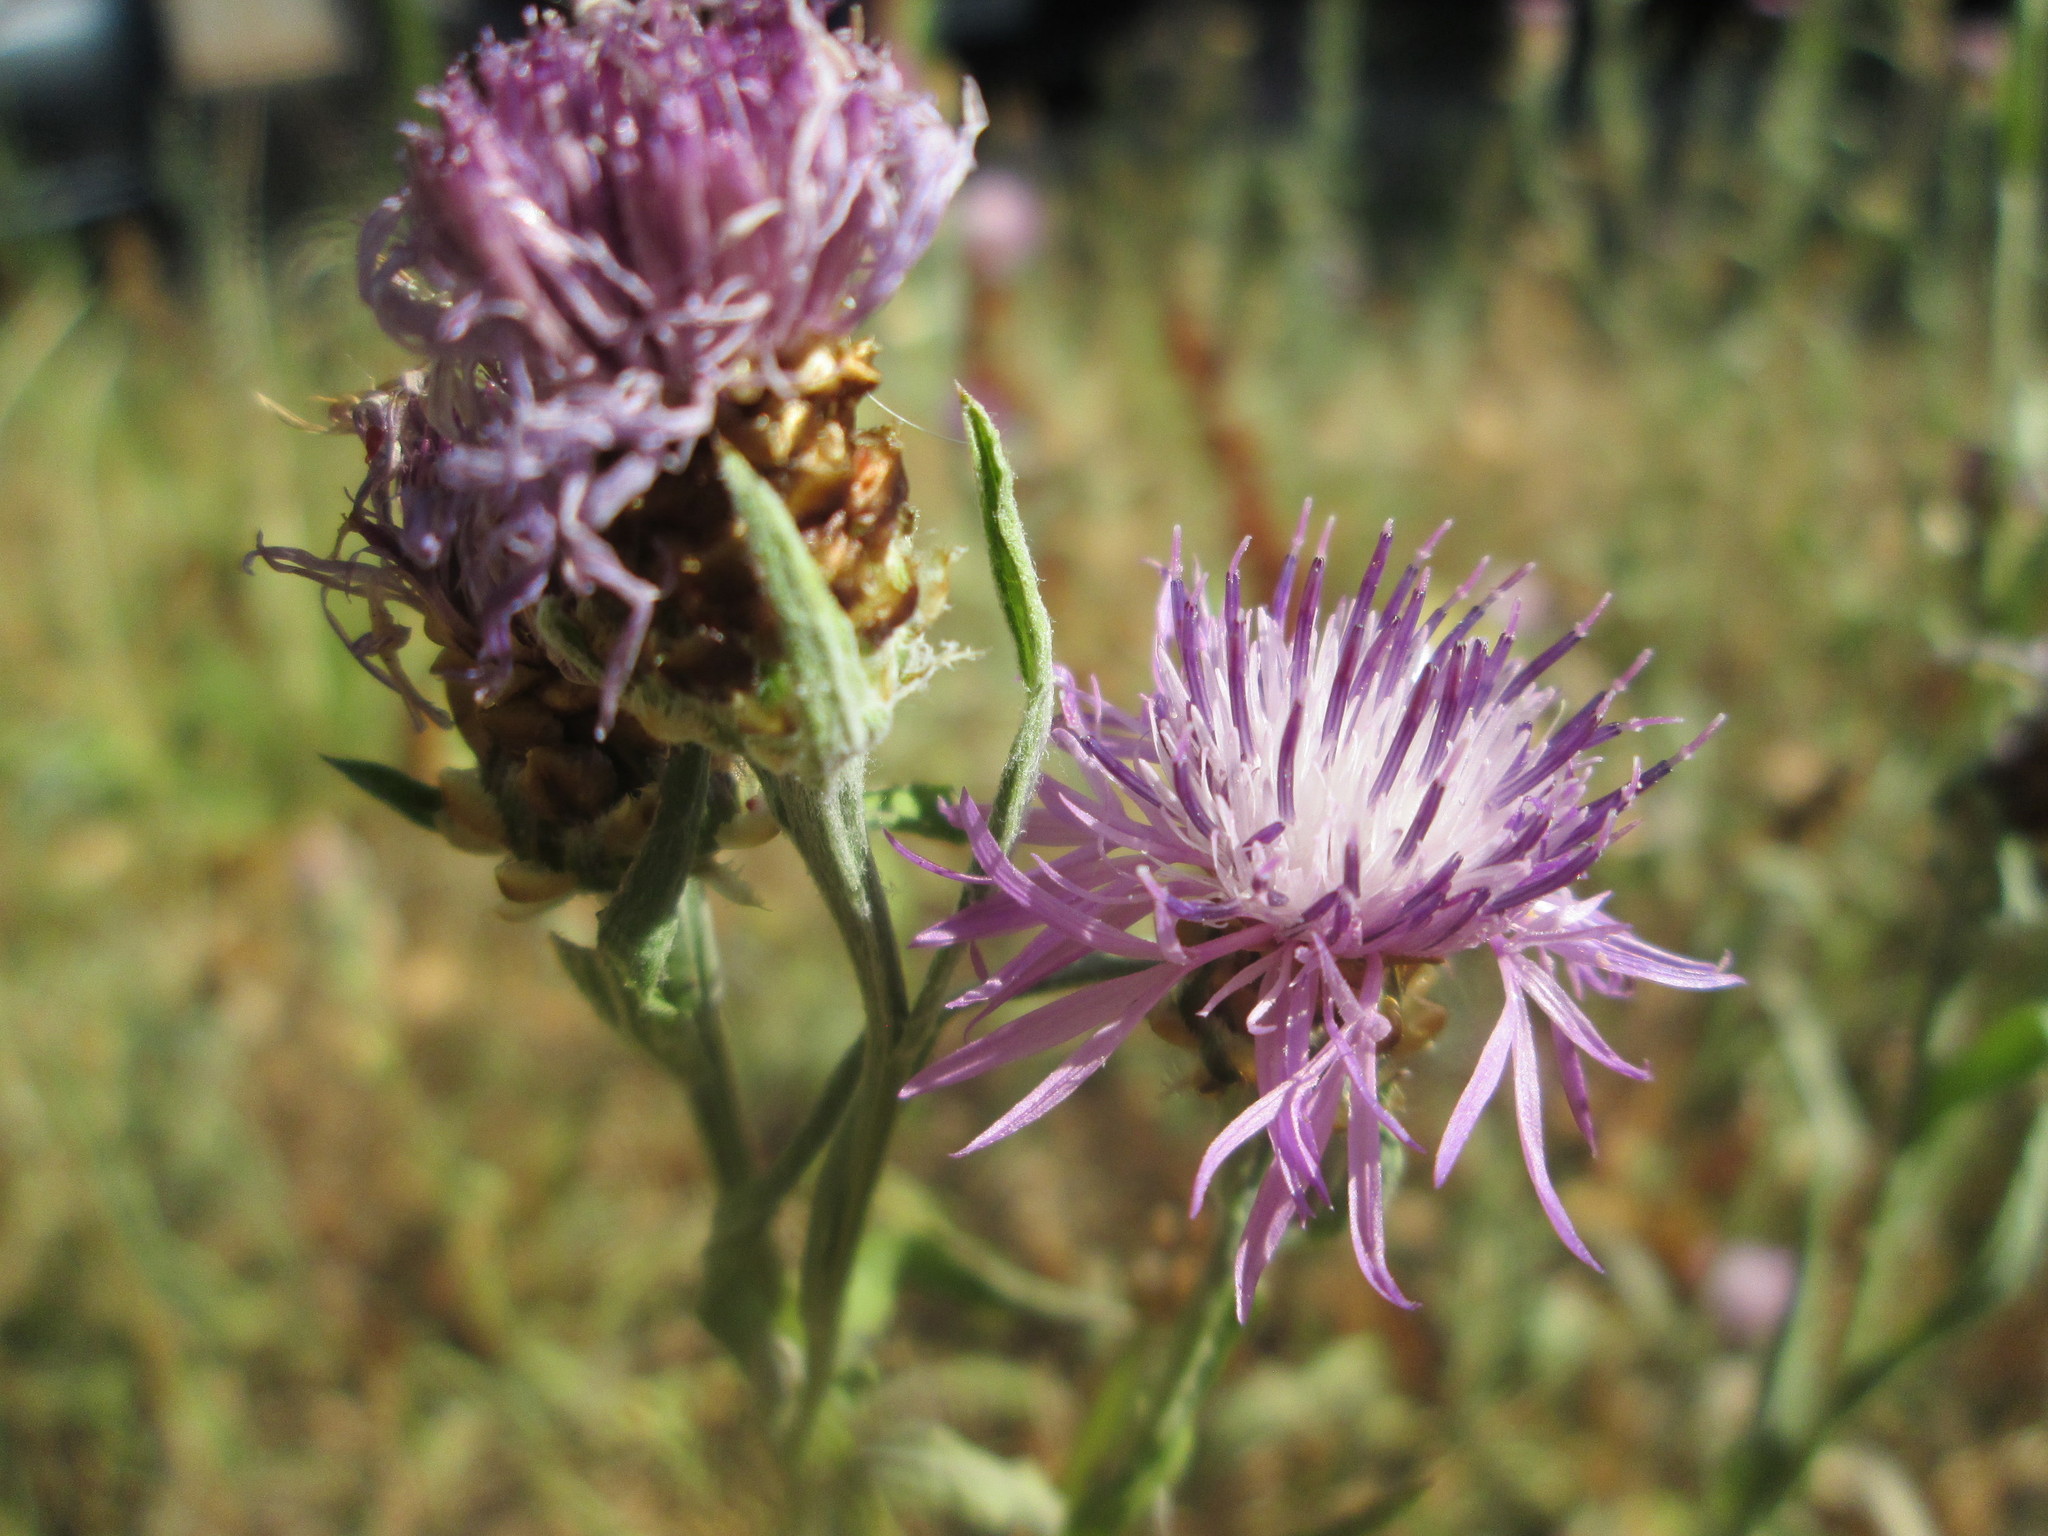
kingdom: Plantae
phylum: Tracheophyta
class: Magnoliopsida
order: Asterales
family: Asteraceae
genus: Centaurea
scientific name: Centaurea jacea
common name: Brown knapweed
